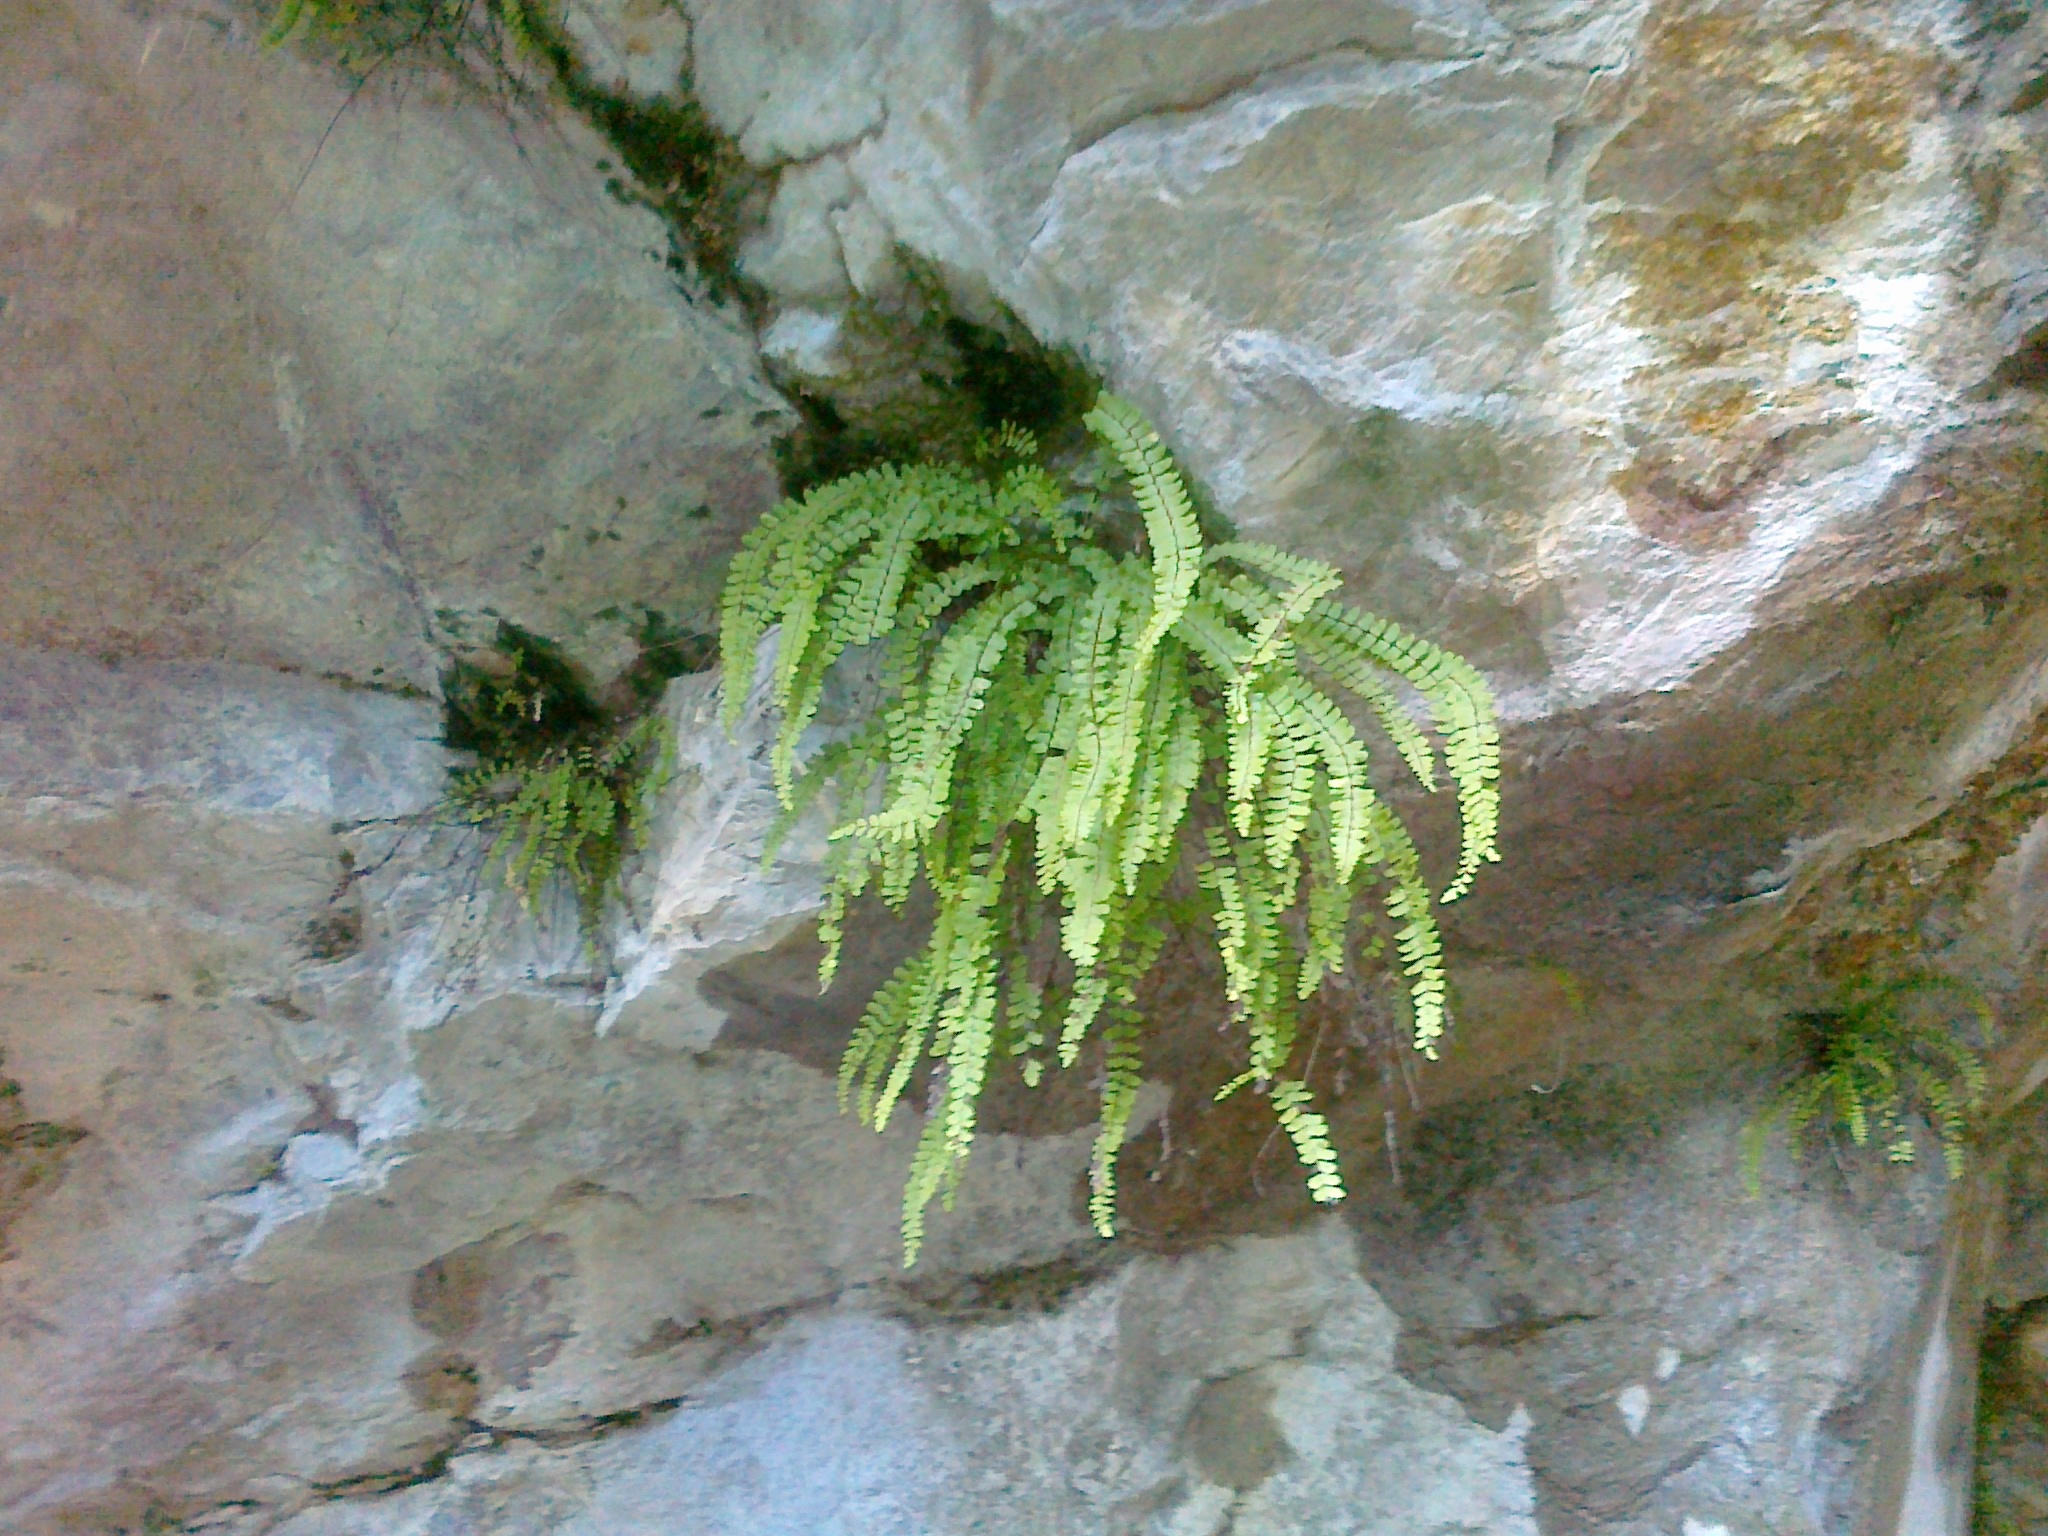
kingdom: Plantae
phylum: Tracheophyta
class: Polypodiopsida
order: Polypodiales
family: Aspleniaceae
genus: Asplenium
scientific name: Asplenium quadrivalens
